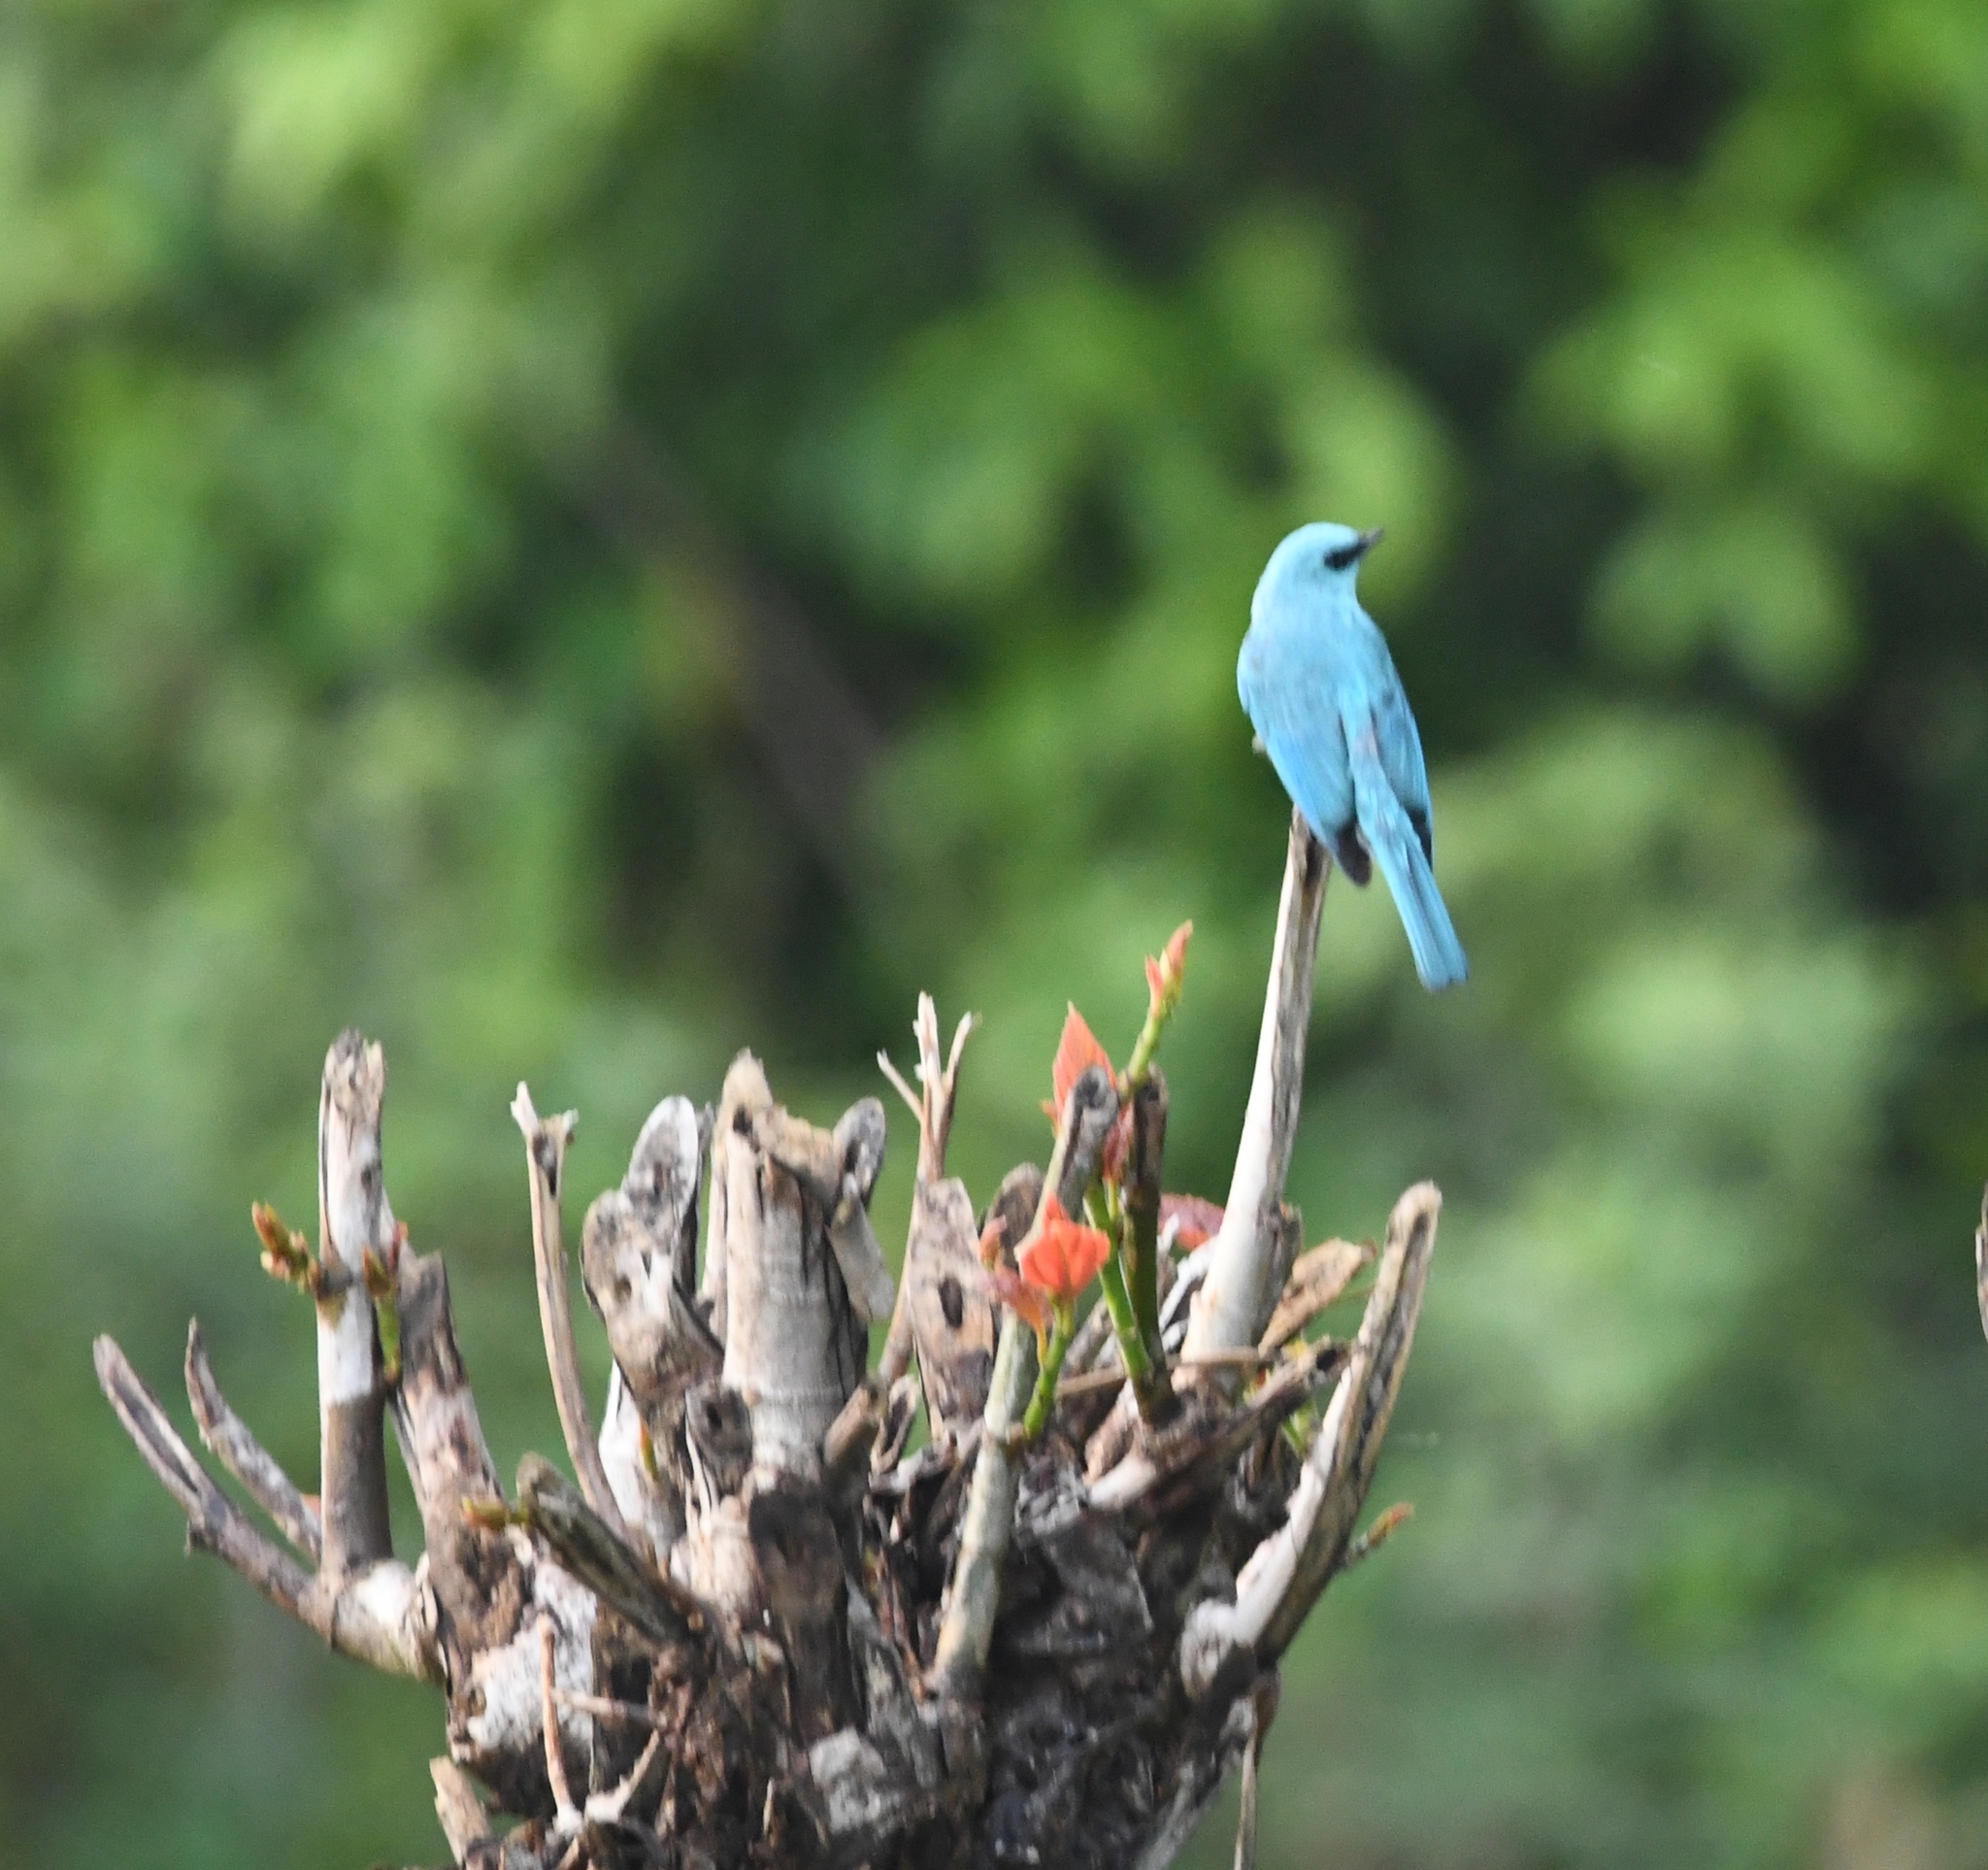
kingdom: Animalia
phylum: Chordata
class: Aves
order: Passeriformes
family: Muscicapidae
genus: Eumyias
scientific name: Eumyias thalassinus
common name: Verditer flycatcher
